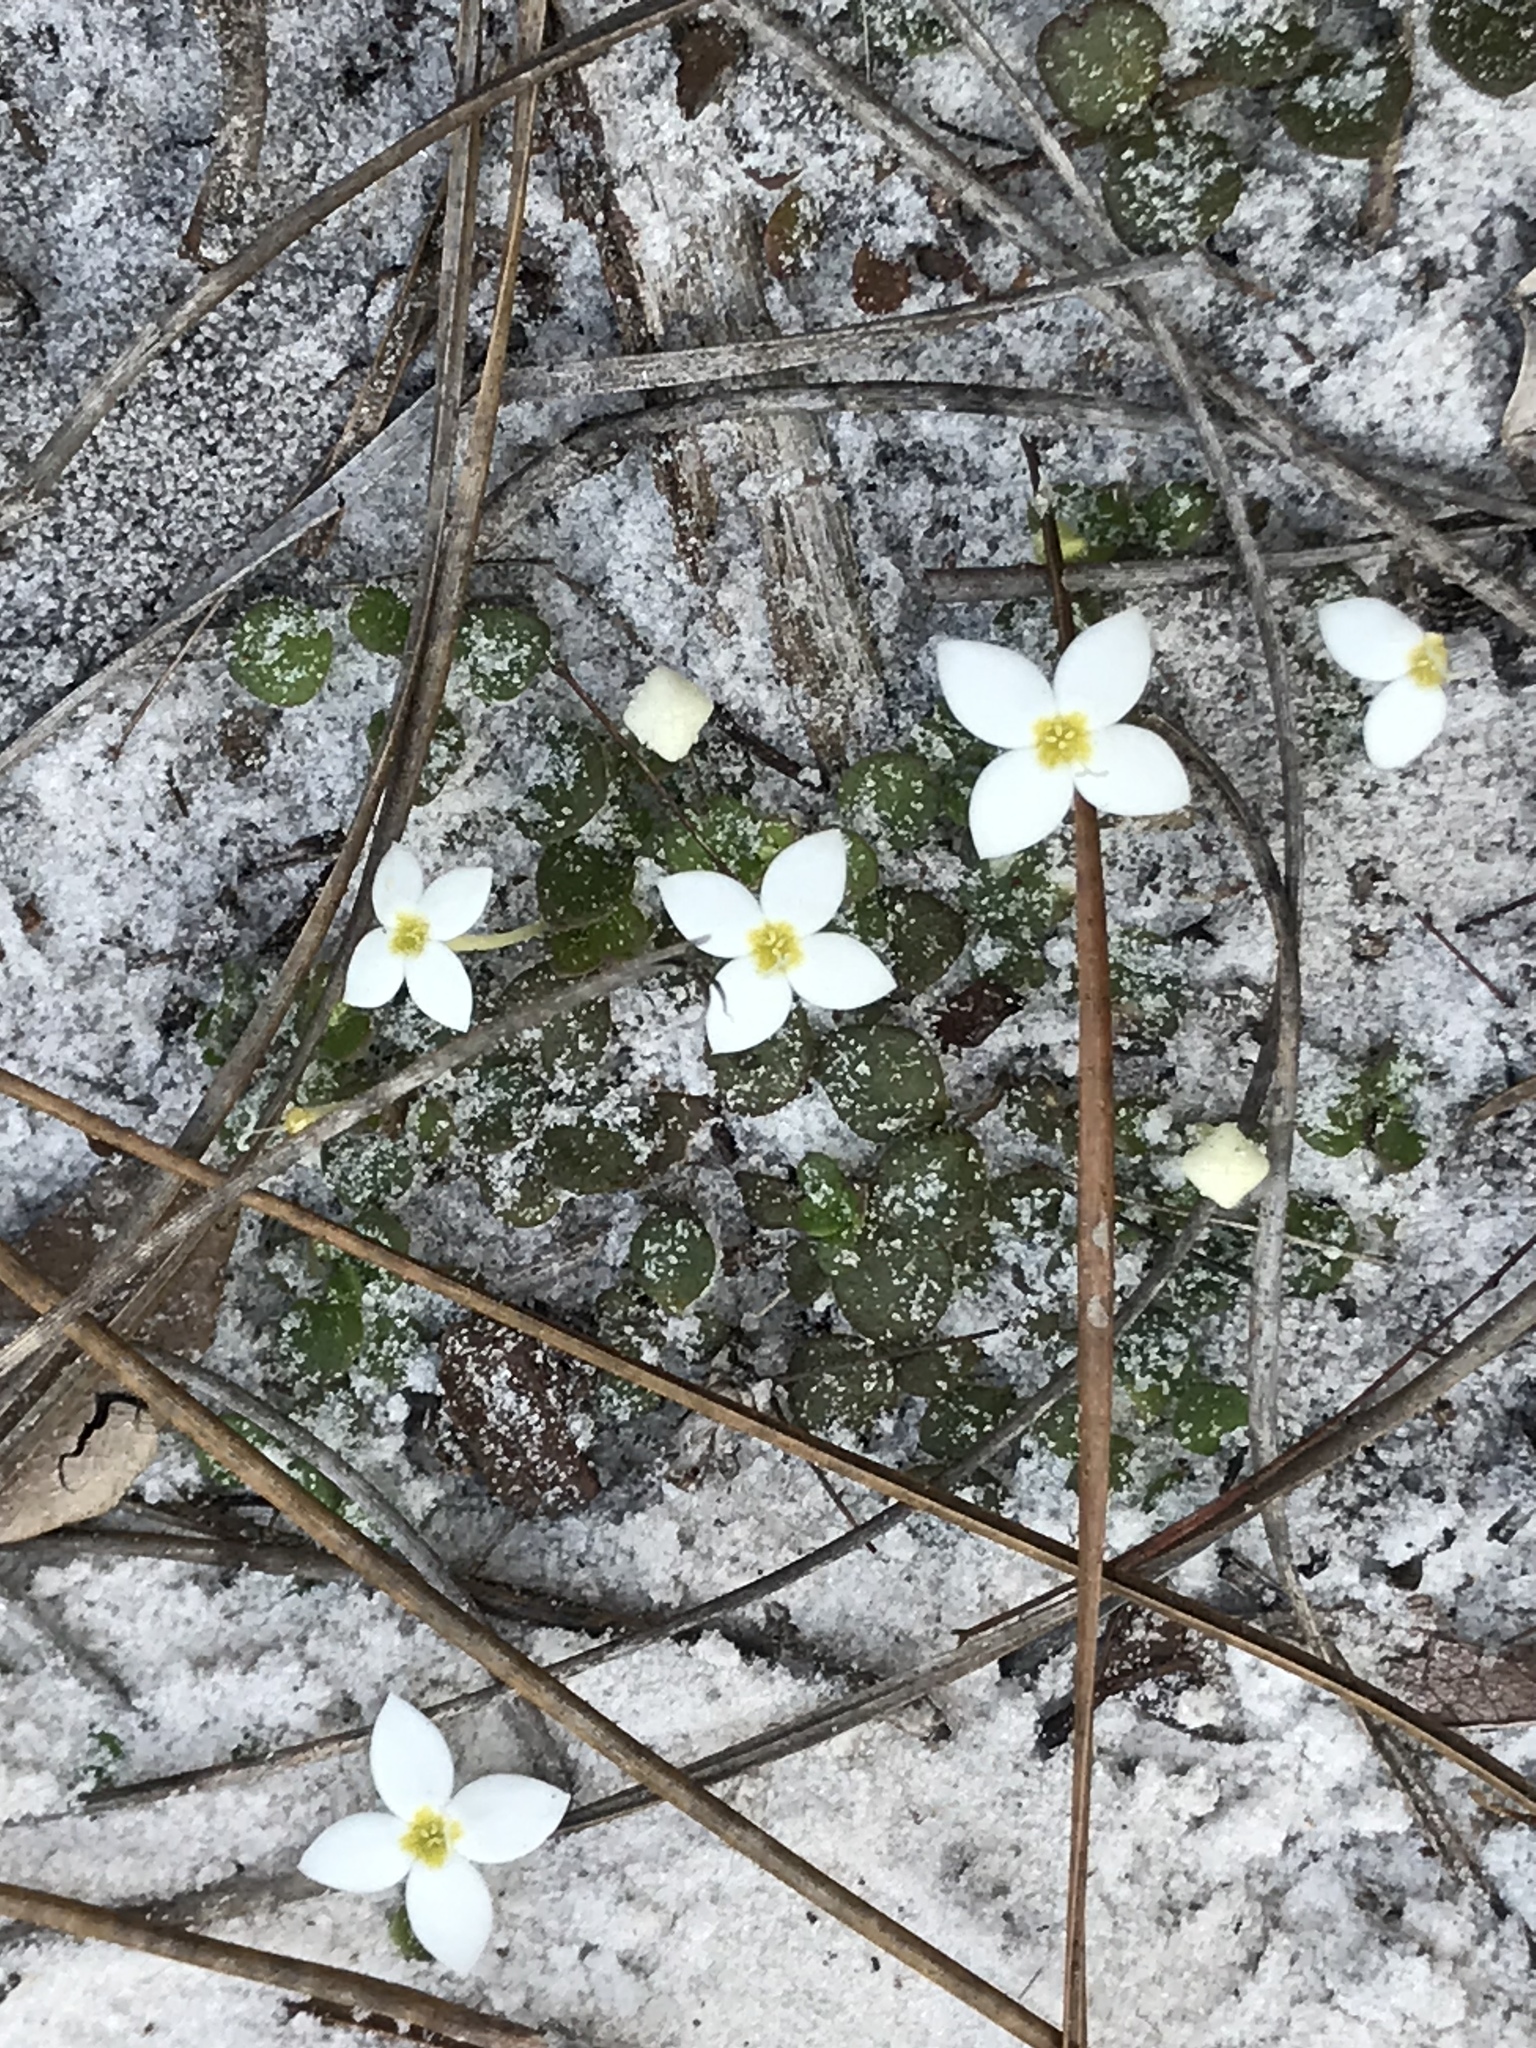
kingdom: Plantae
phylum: Tracheophyta
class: Magnoliopsida
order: Gentianales
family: Rubiaceae
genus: Houstonia
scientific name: Houstonia procumbens
